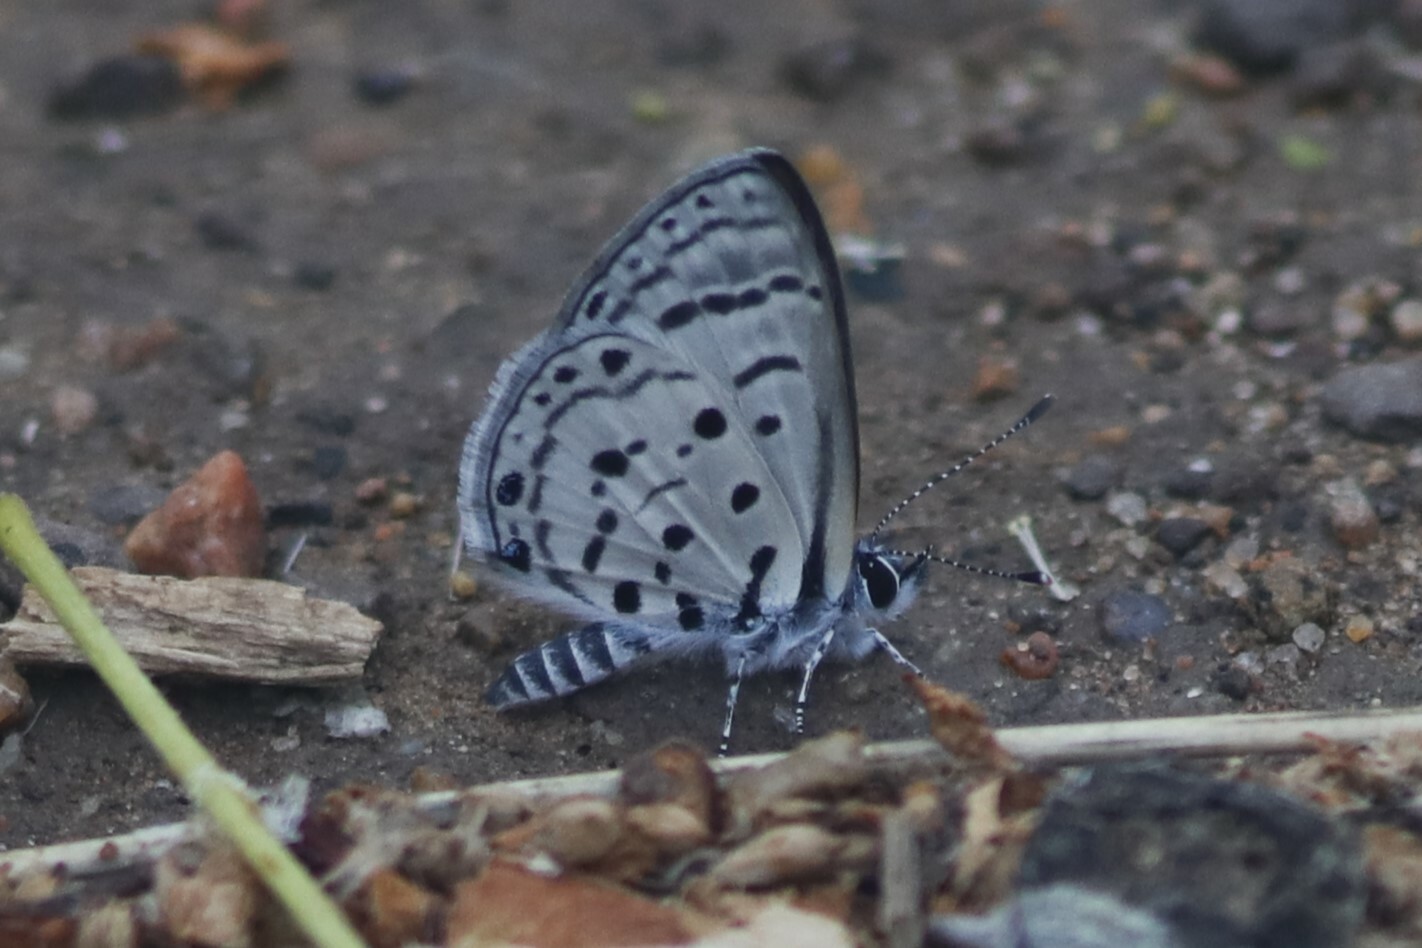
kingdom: Animalia
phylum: Arthropoda
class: Insecta
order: Lepidoptera
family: Lycaenidae
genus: Azanus
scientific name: Azanus moriqua
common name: Thorn-tree babul blue
